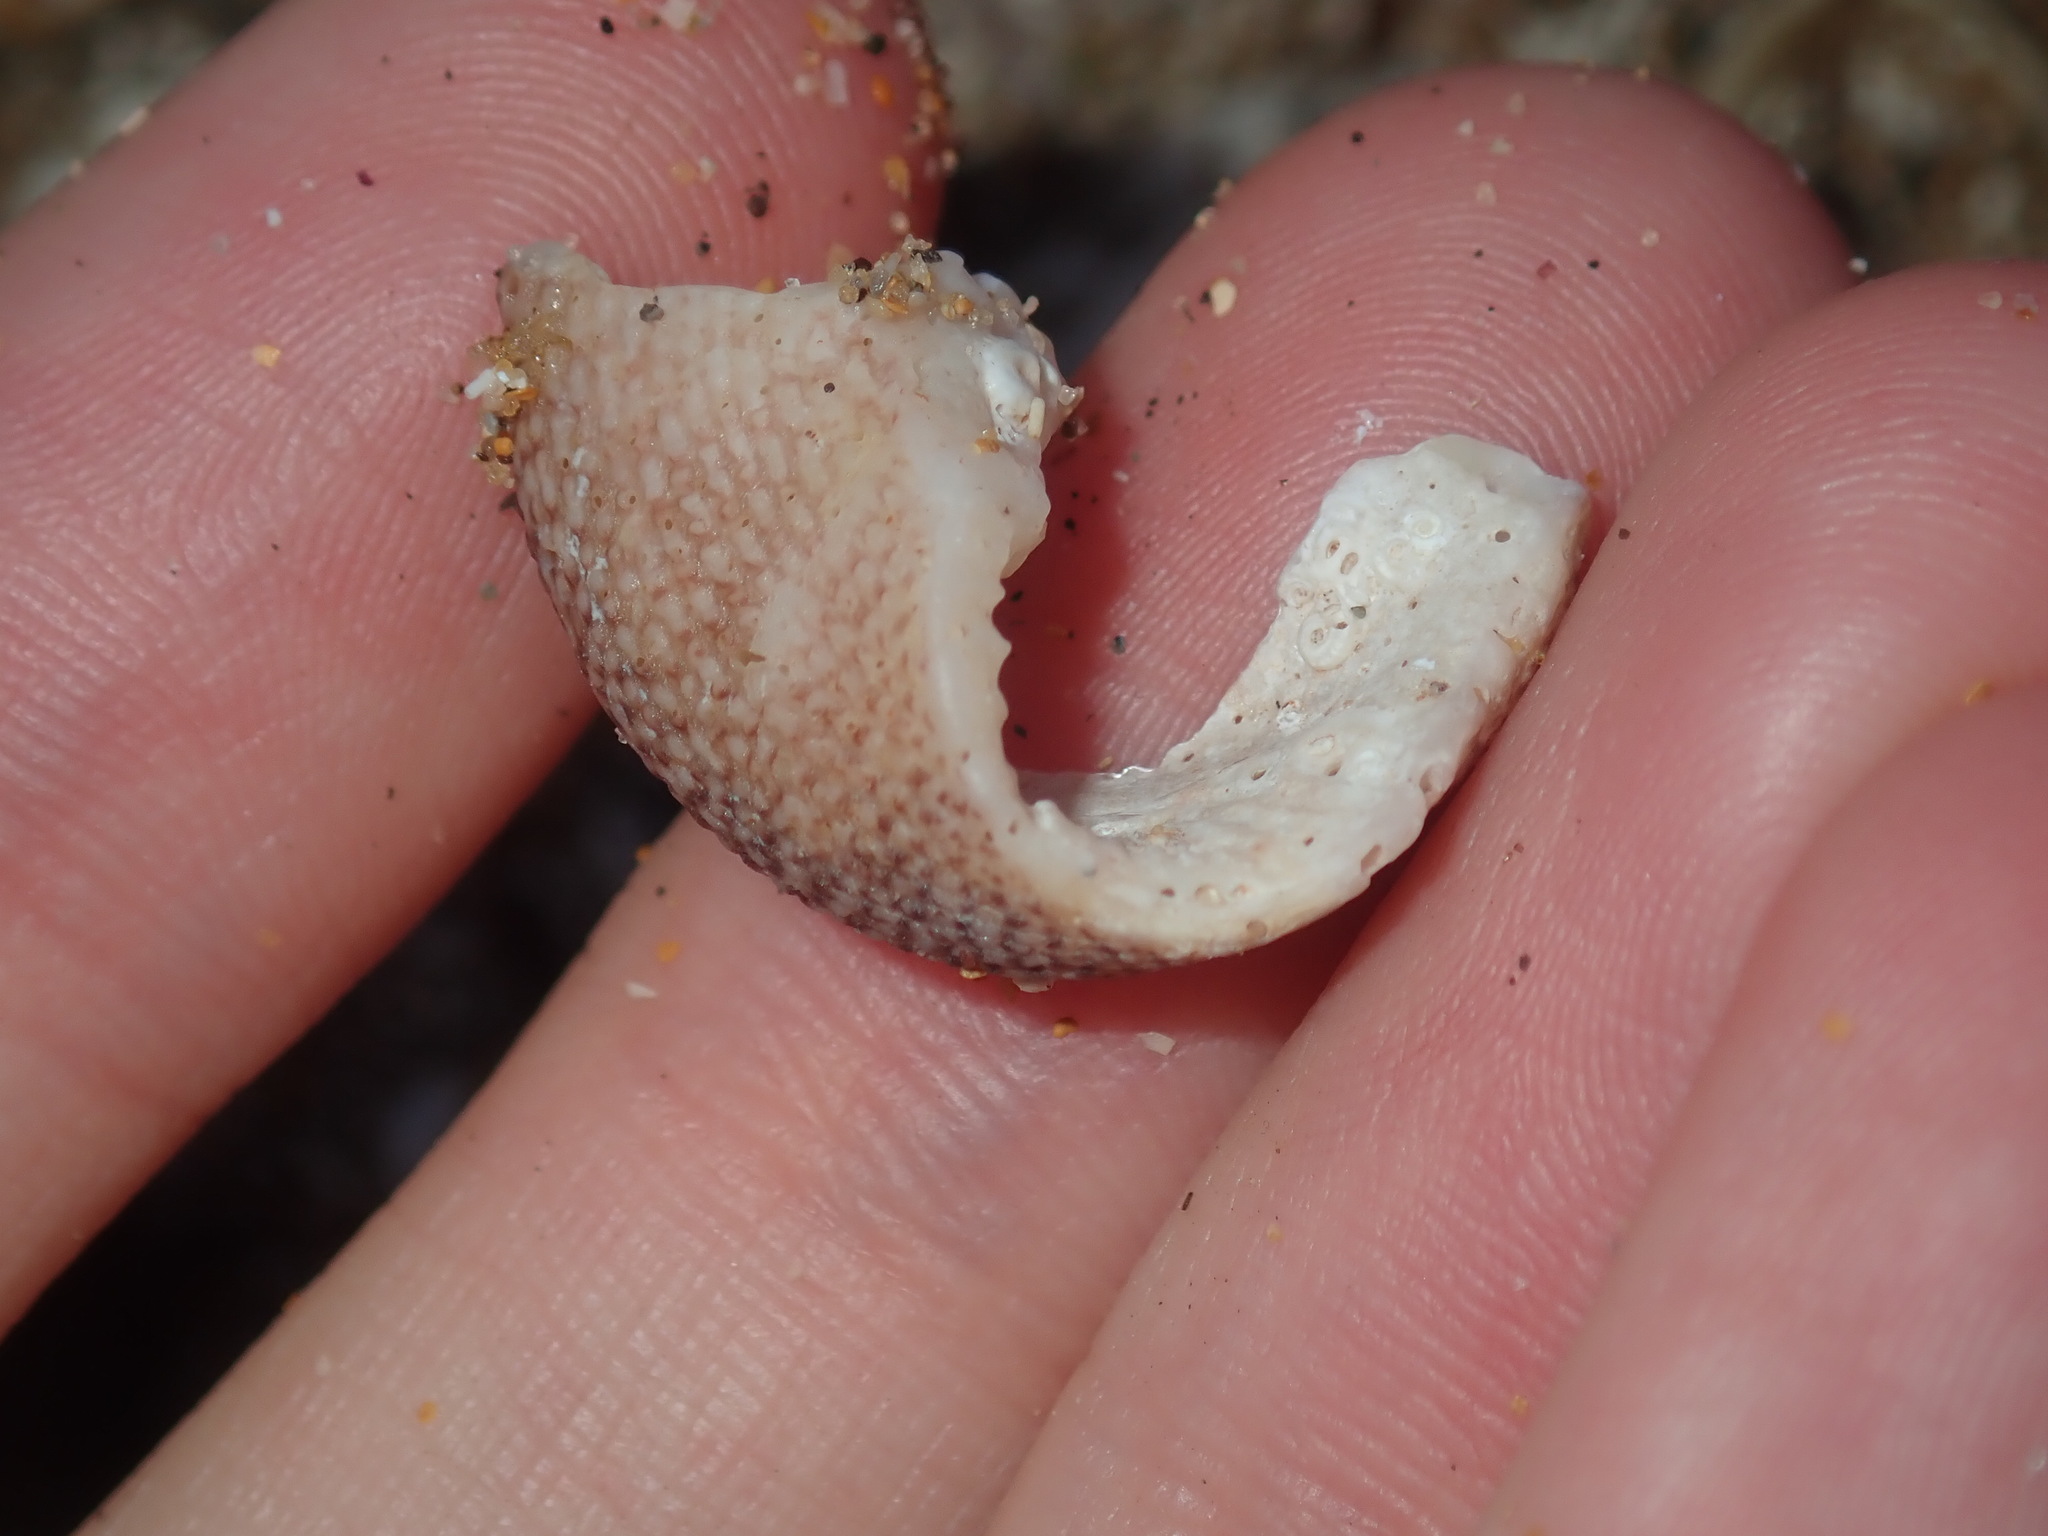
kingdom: Animalia
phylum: Mollusca
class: Gastropoda
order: Trochida
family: Trochidae
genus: Clanculus
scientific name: Clanculus maugeri
